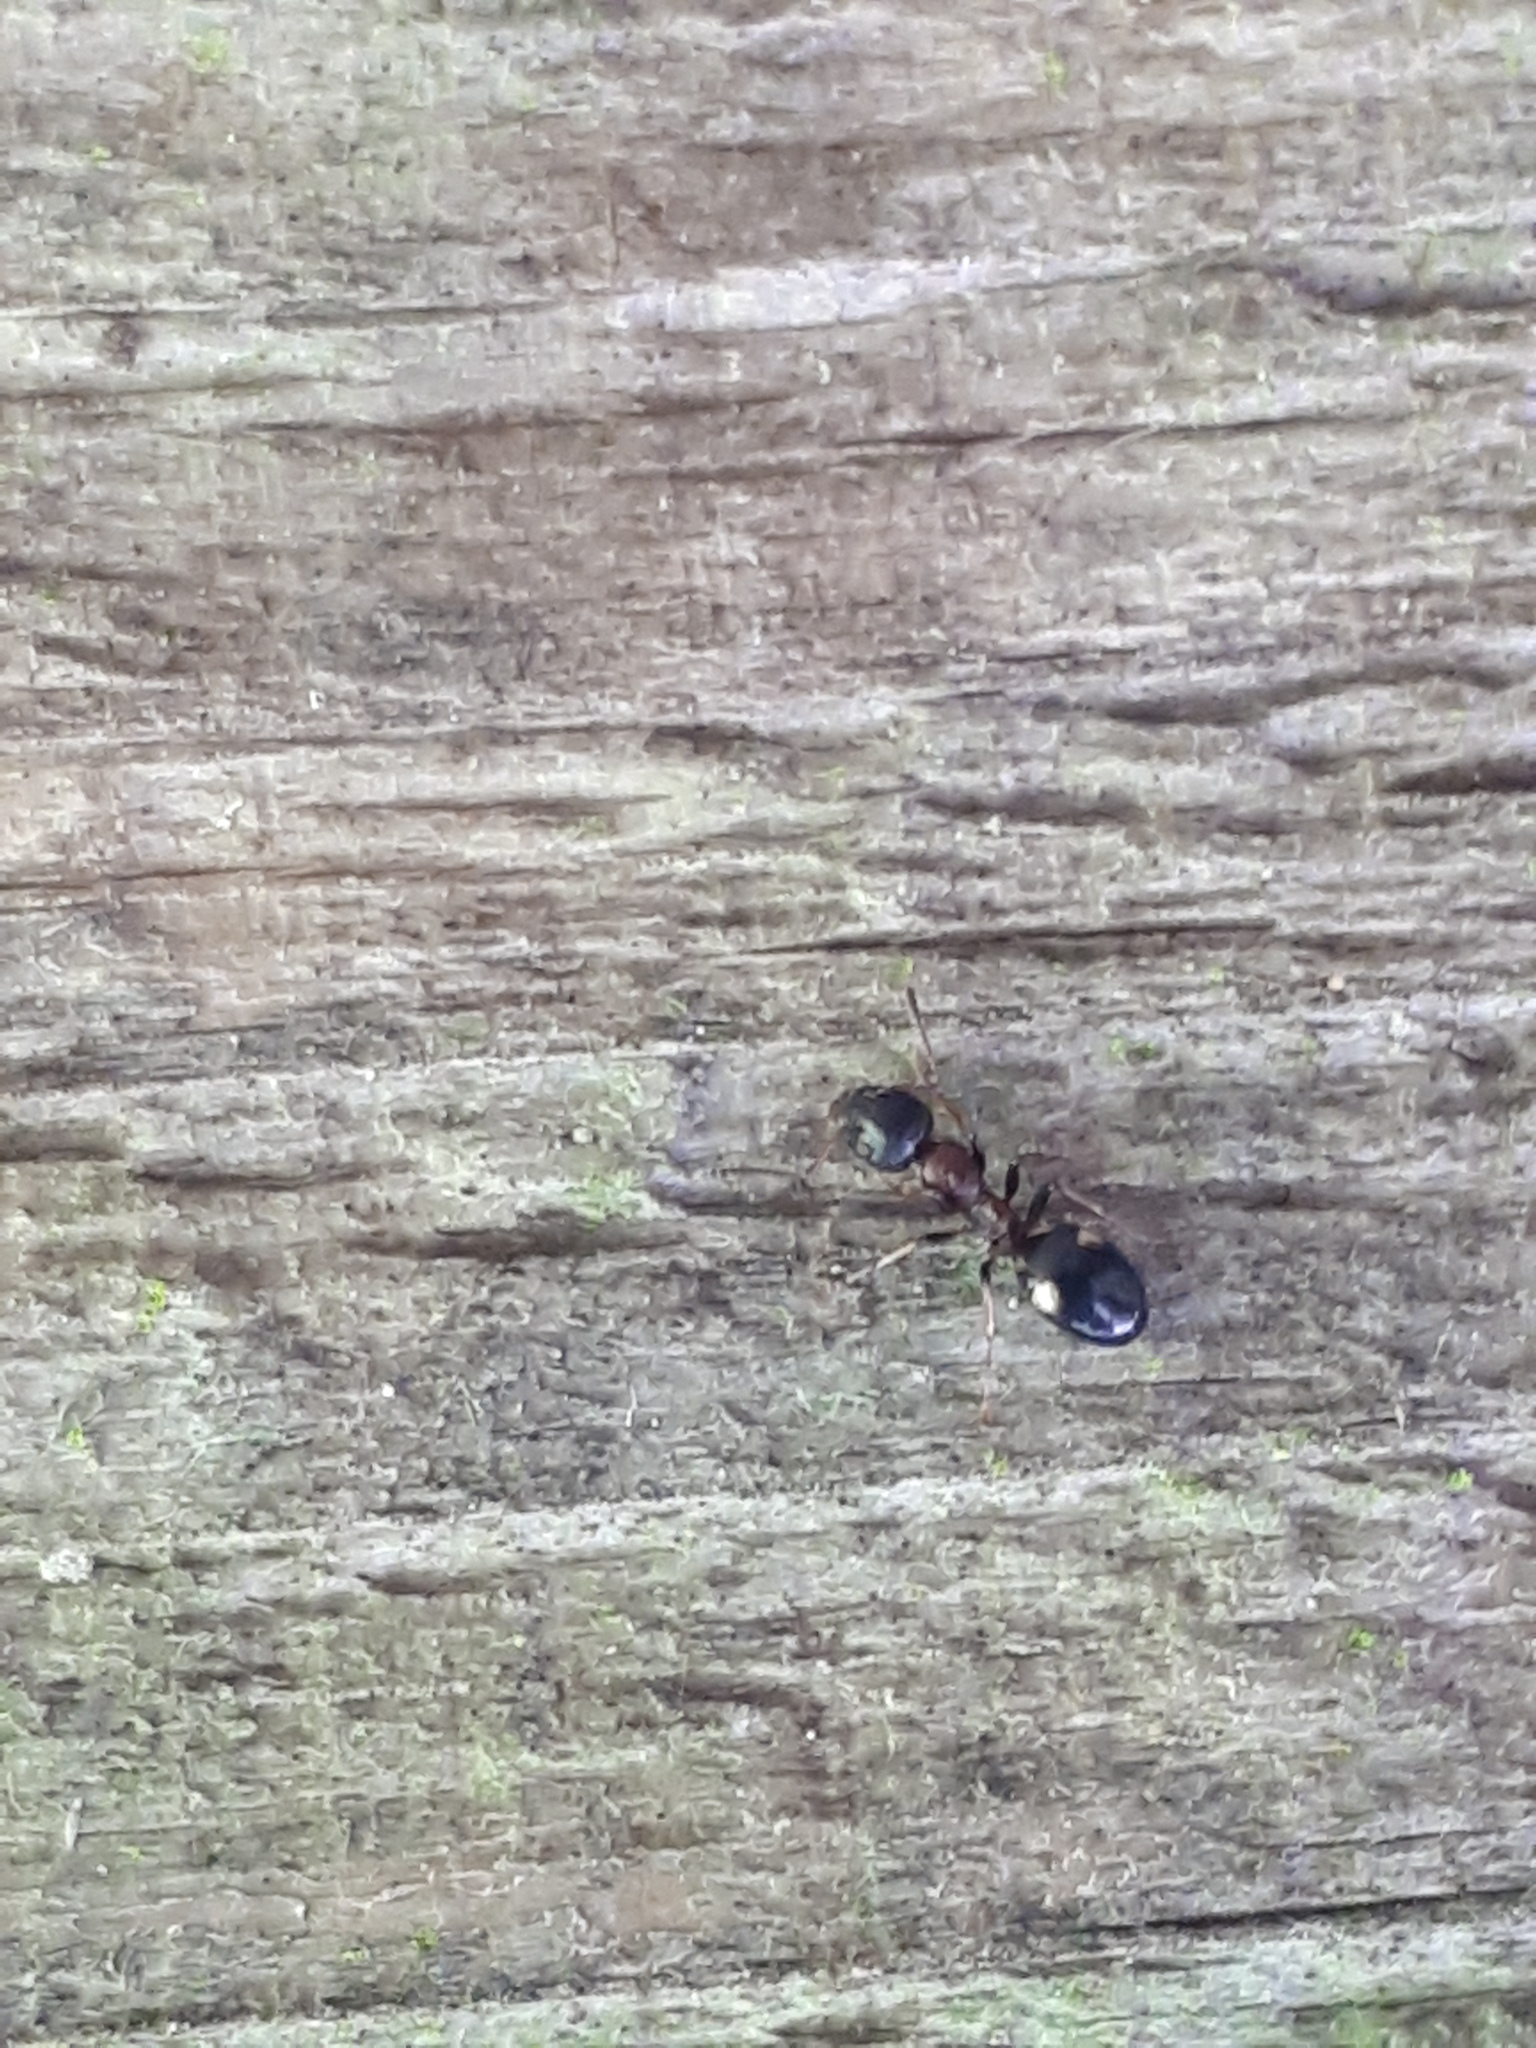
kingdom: Animalia
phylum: Arthropoda
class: Insecta
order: Hymenoptera
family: Formicidae
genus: Dolichoderus
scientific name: Dolichoderus quadripunctatus
